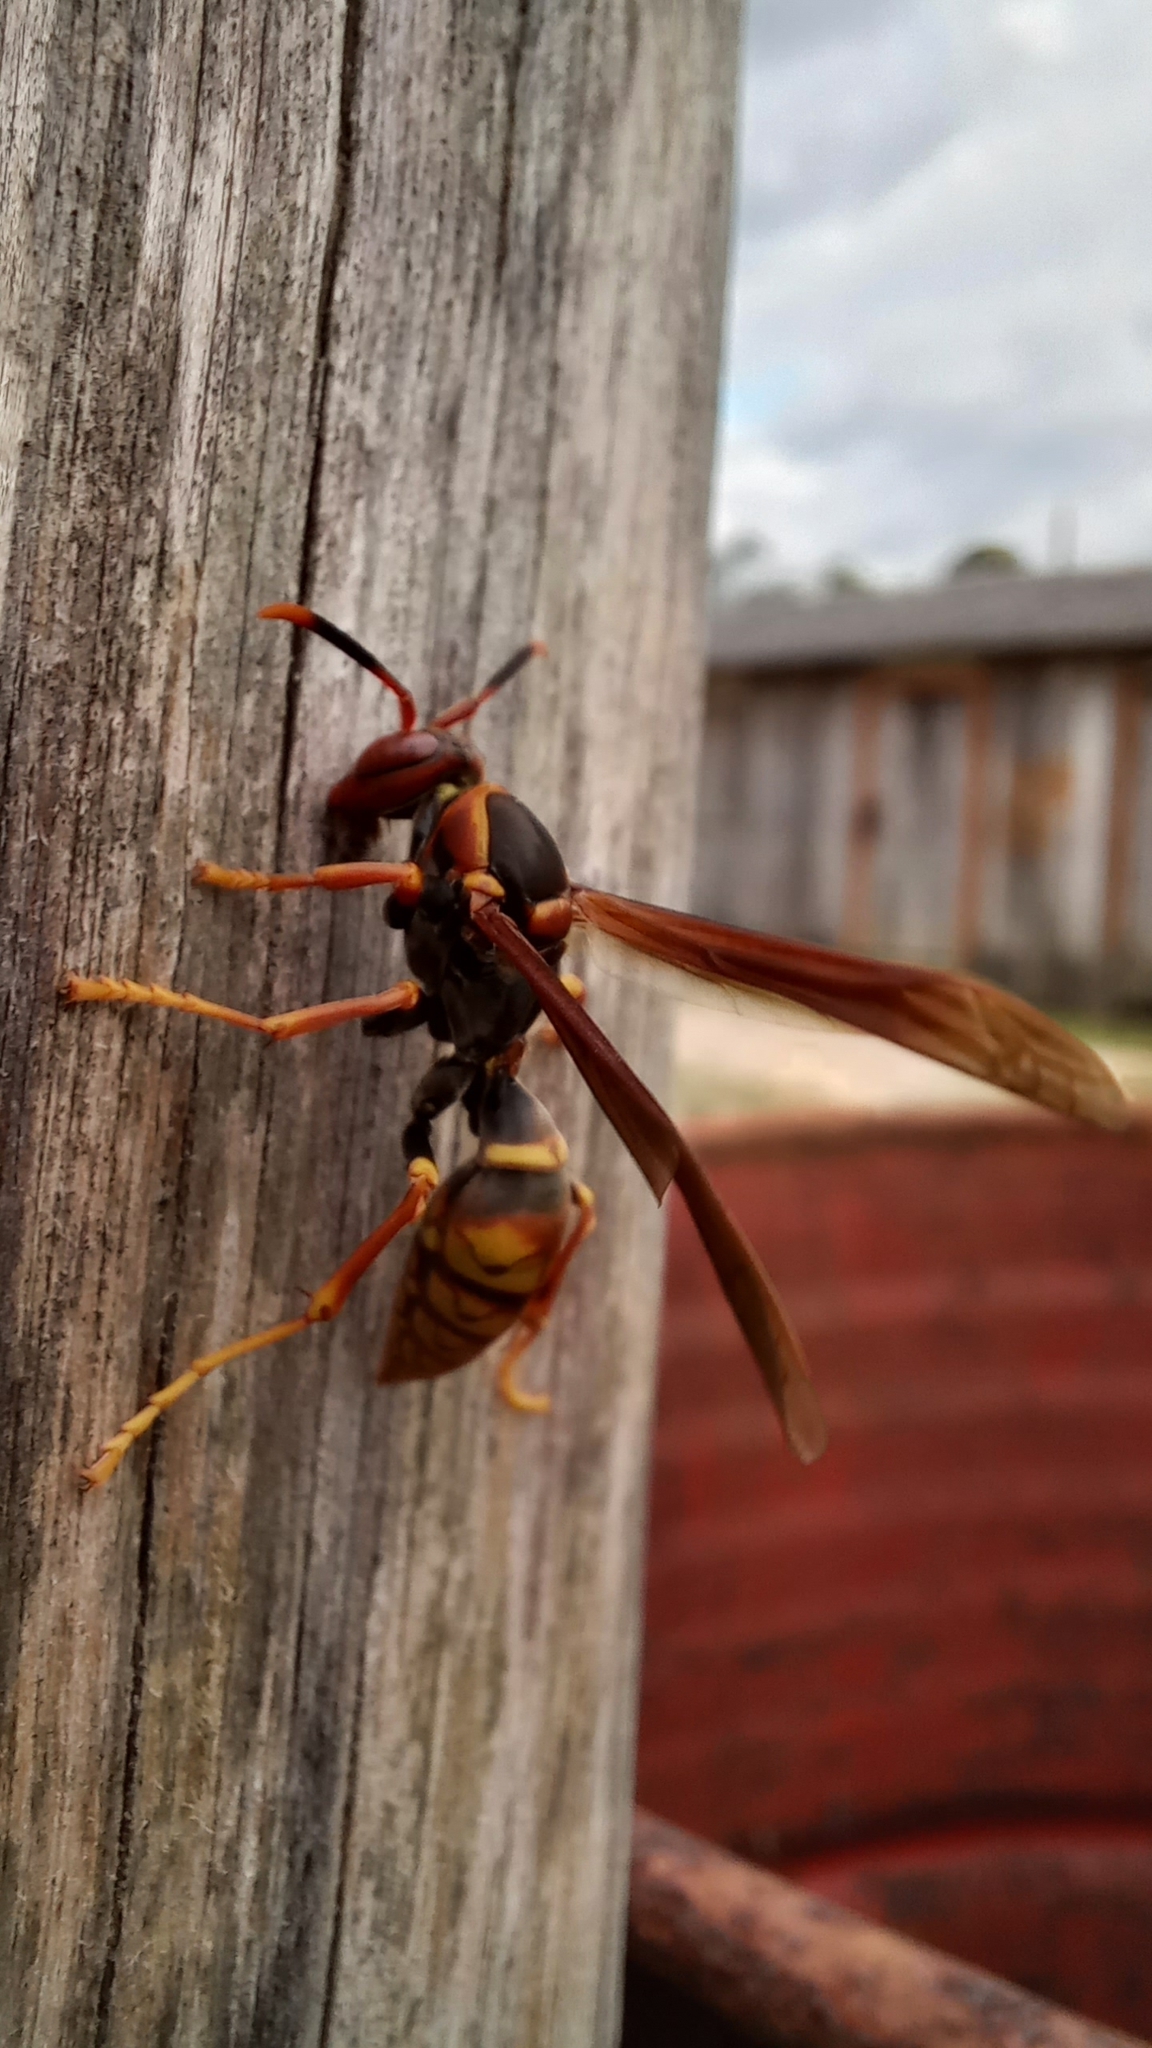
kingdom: Animalia
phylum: Arthropoda
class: Insecta
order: Hymenoptera
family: Eumenidae
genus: Polistes
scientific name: Polistes cavapytiformis
